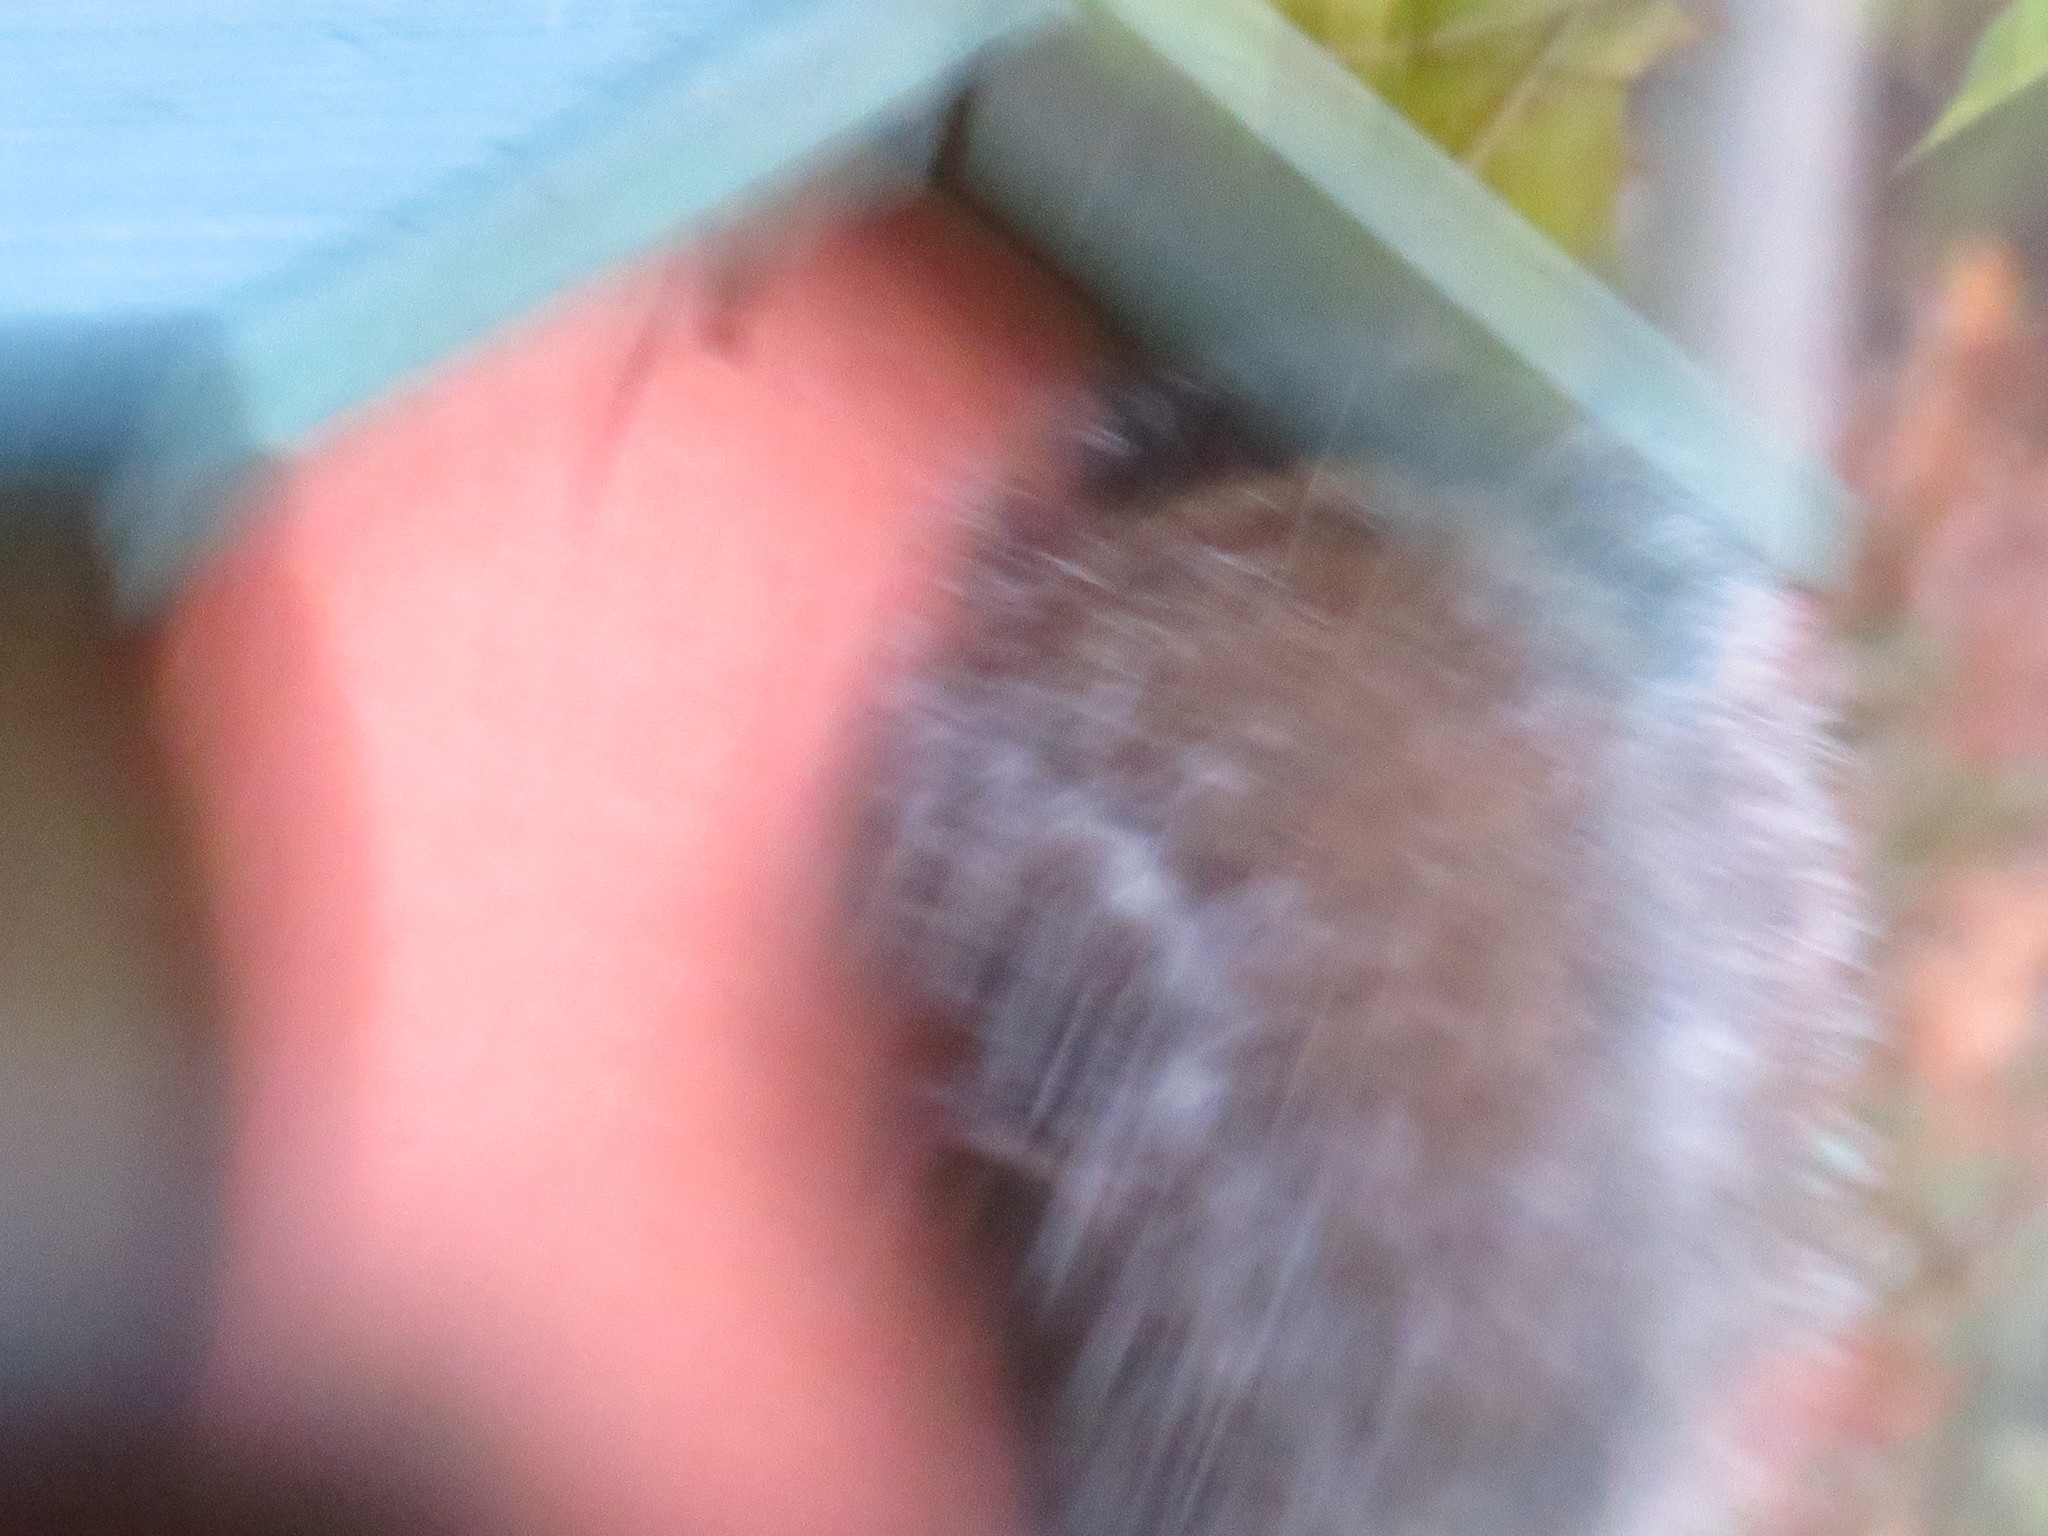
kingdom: Animalia
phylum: Chordata
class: Mammalia
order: Rodentia
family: Sciuridae
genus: Sciurus
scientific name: Sciurus carolinensis
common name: Eastern gray squirrel
